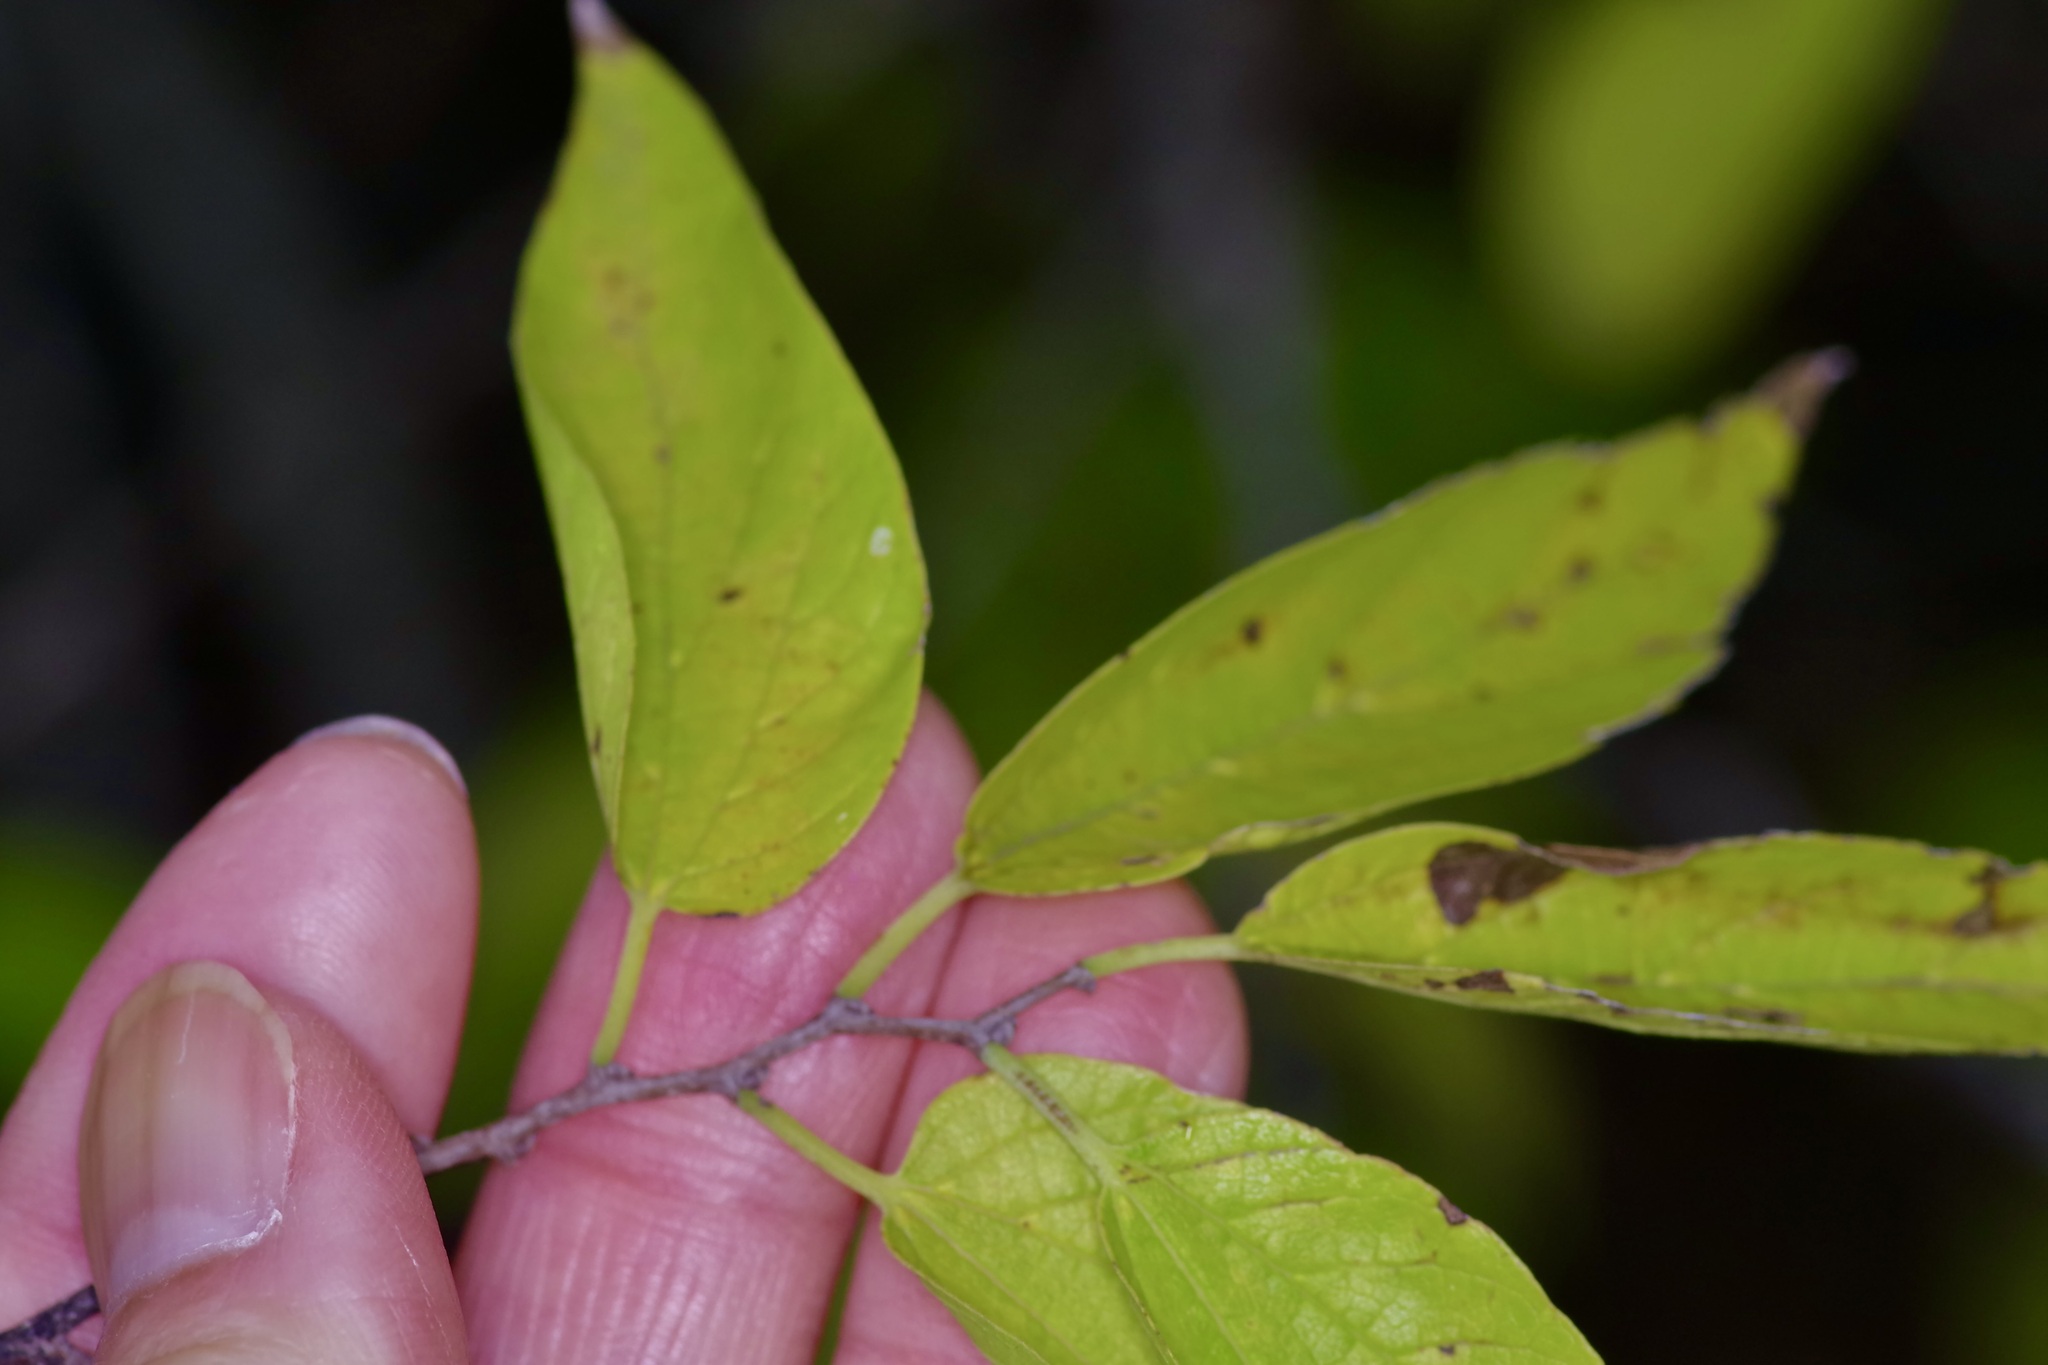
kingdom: Plantae
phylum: Tracheophyta
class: Magnoliopsida
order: Santalales
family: Viscaceae
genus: Phoradendron
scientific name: Phoradendron leucarpum
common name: Pacific mistletoe
